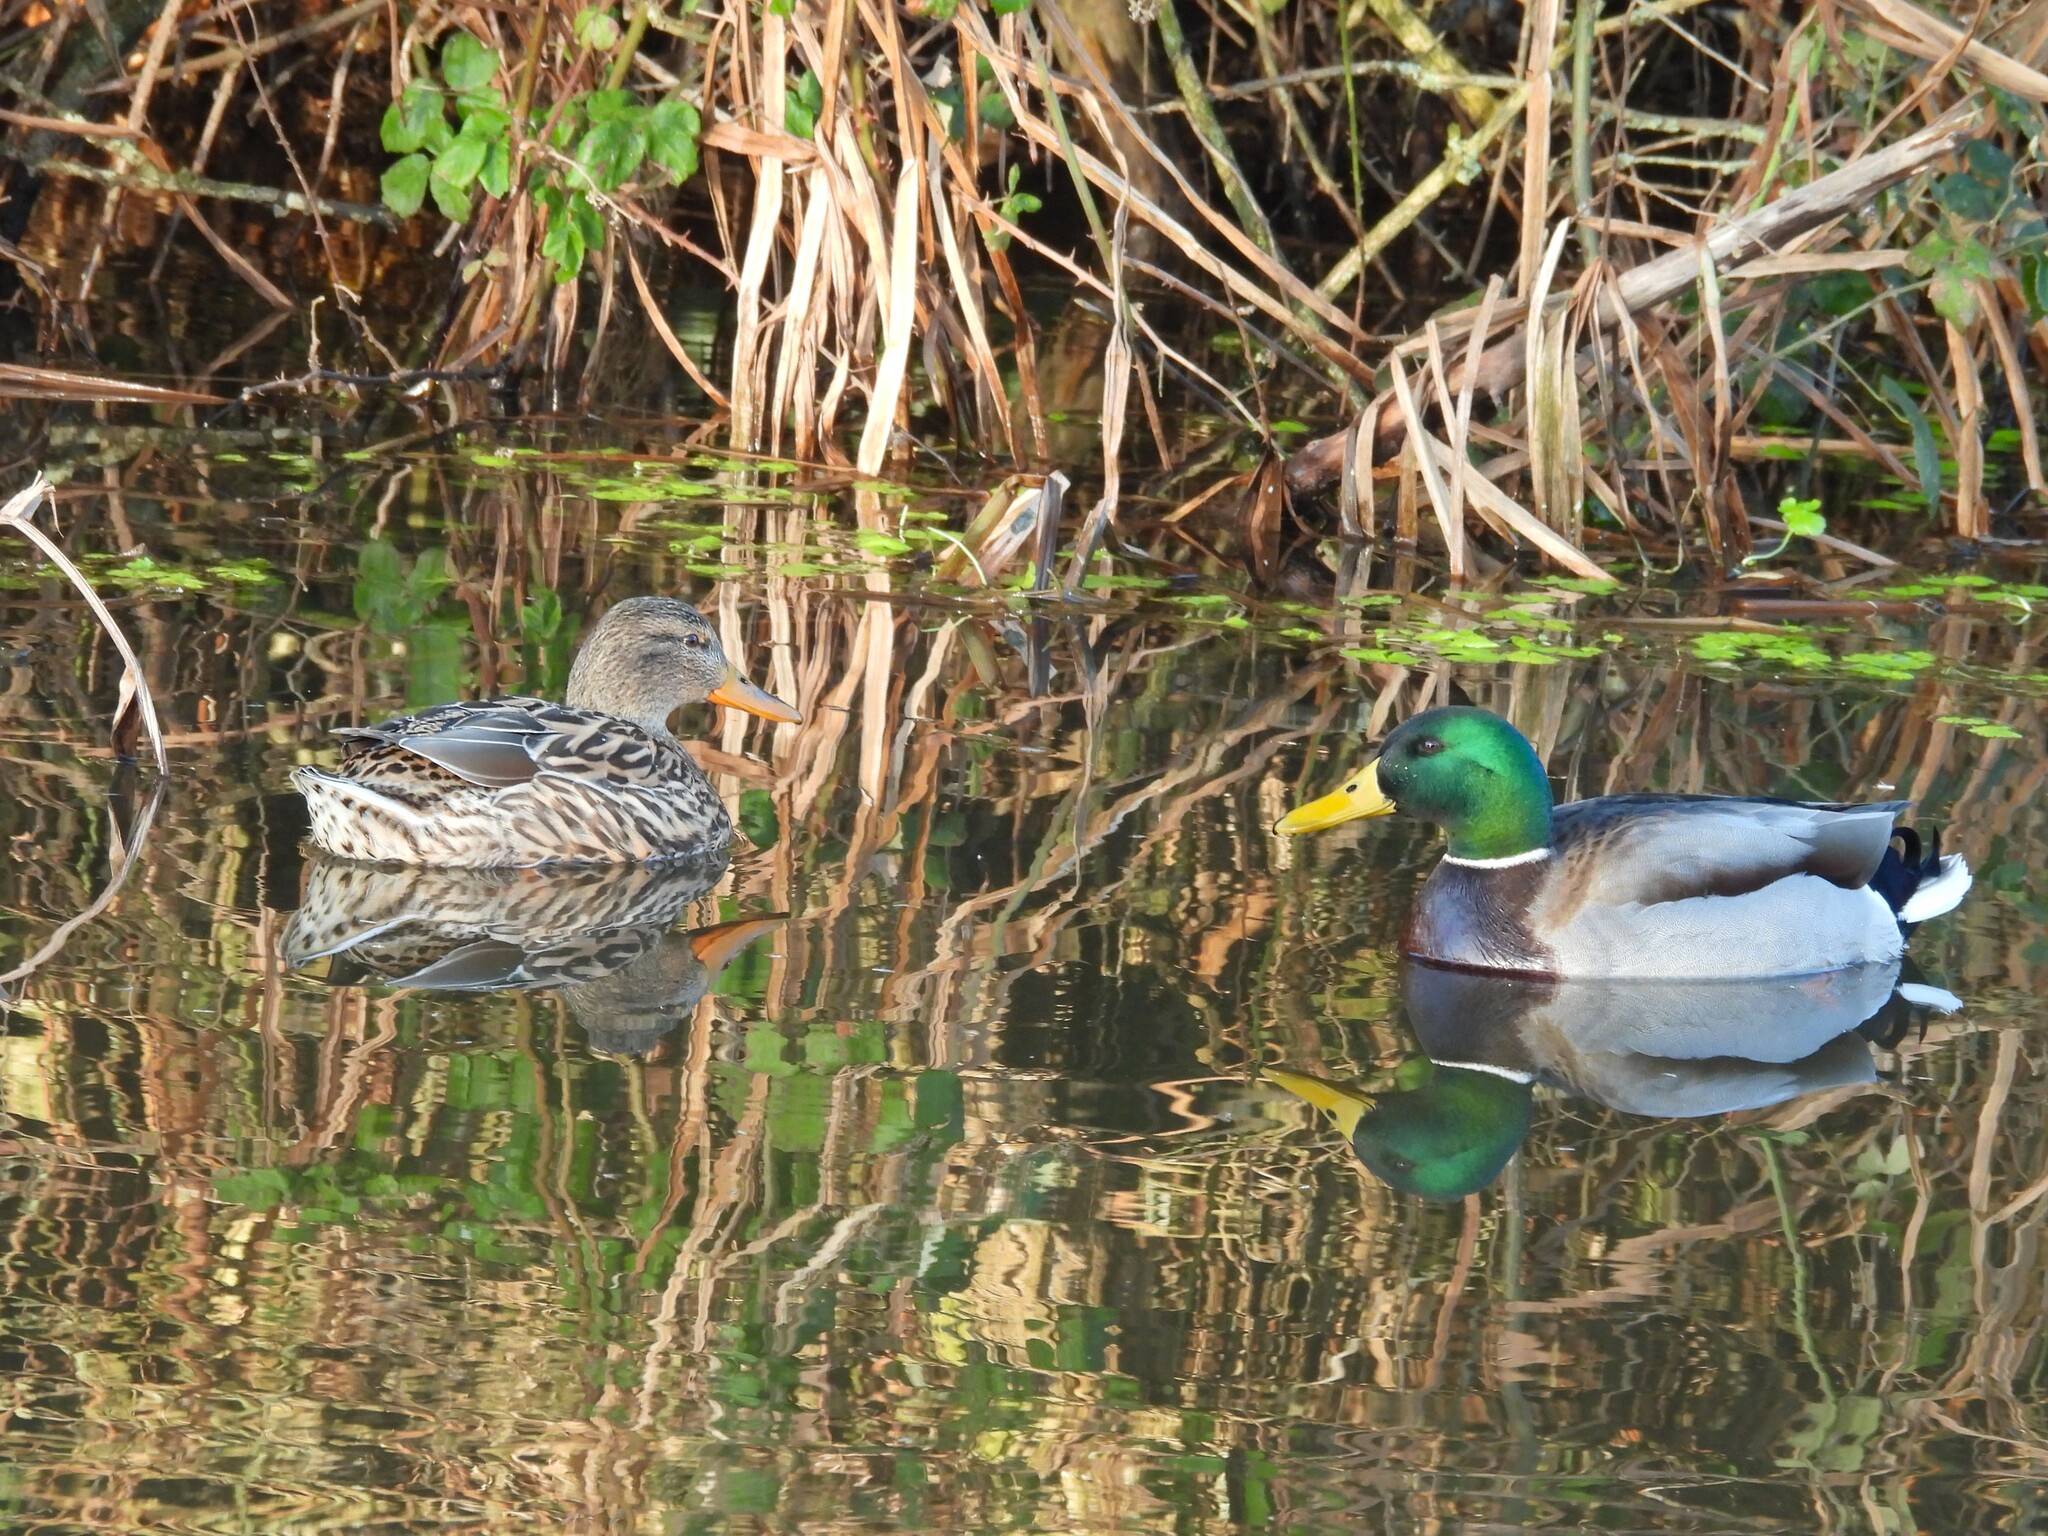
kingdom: Animalia
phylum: Chordata
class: Aves
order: Anseriformes
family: Anatidae
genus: Anas
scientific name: Anas platyrhynchos
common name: Mallard
